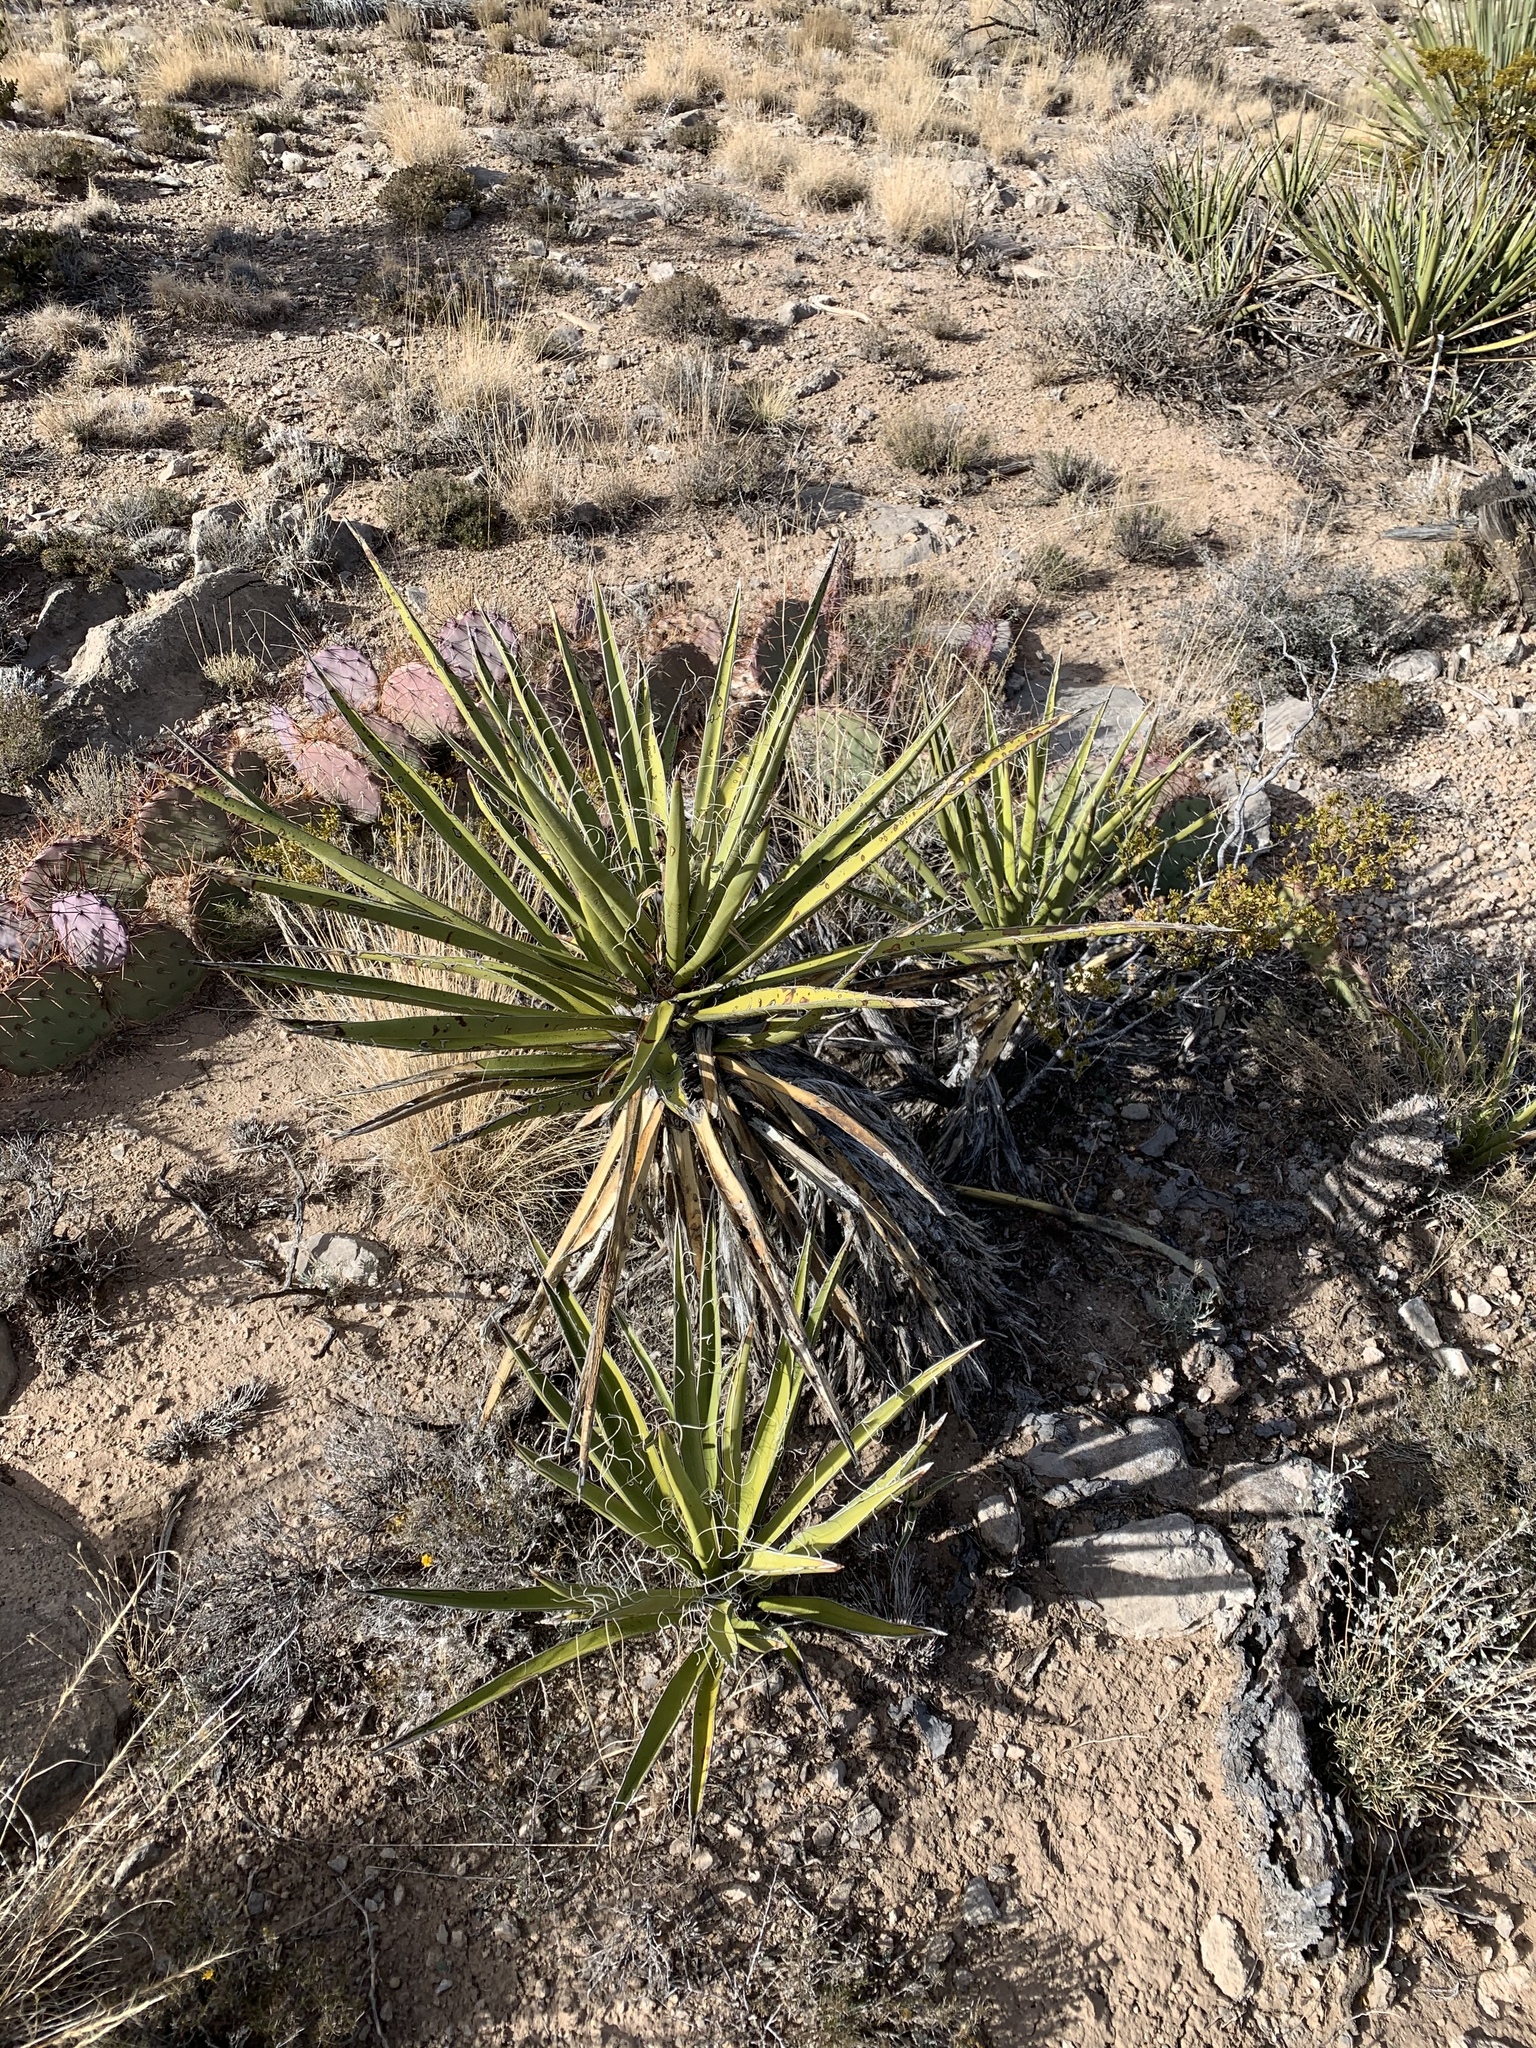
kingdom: Plantae
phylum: Tracheophyta
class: Liliopsida
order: Asparagales
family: Asparagaceae
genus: Yucca
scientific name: Yucca baccata
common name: Banana yucca
